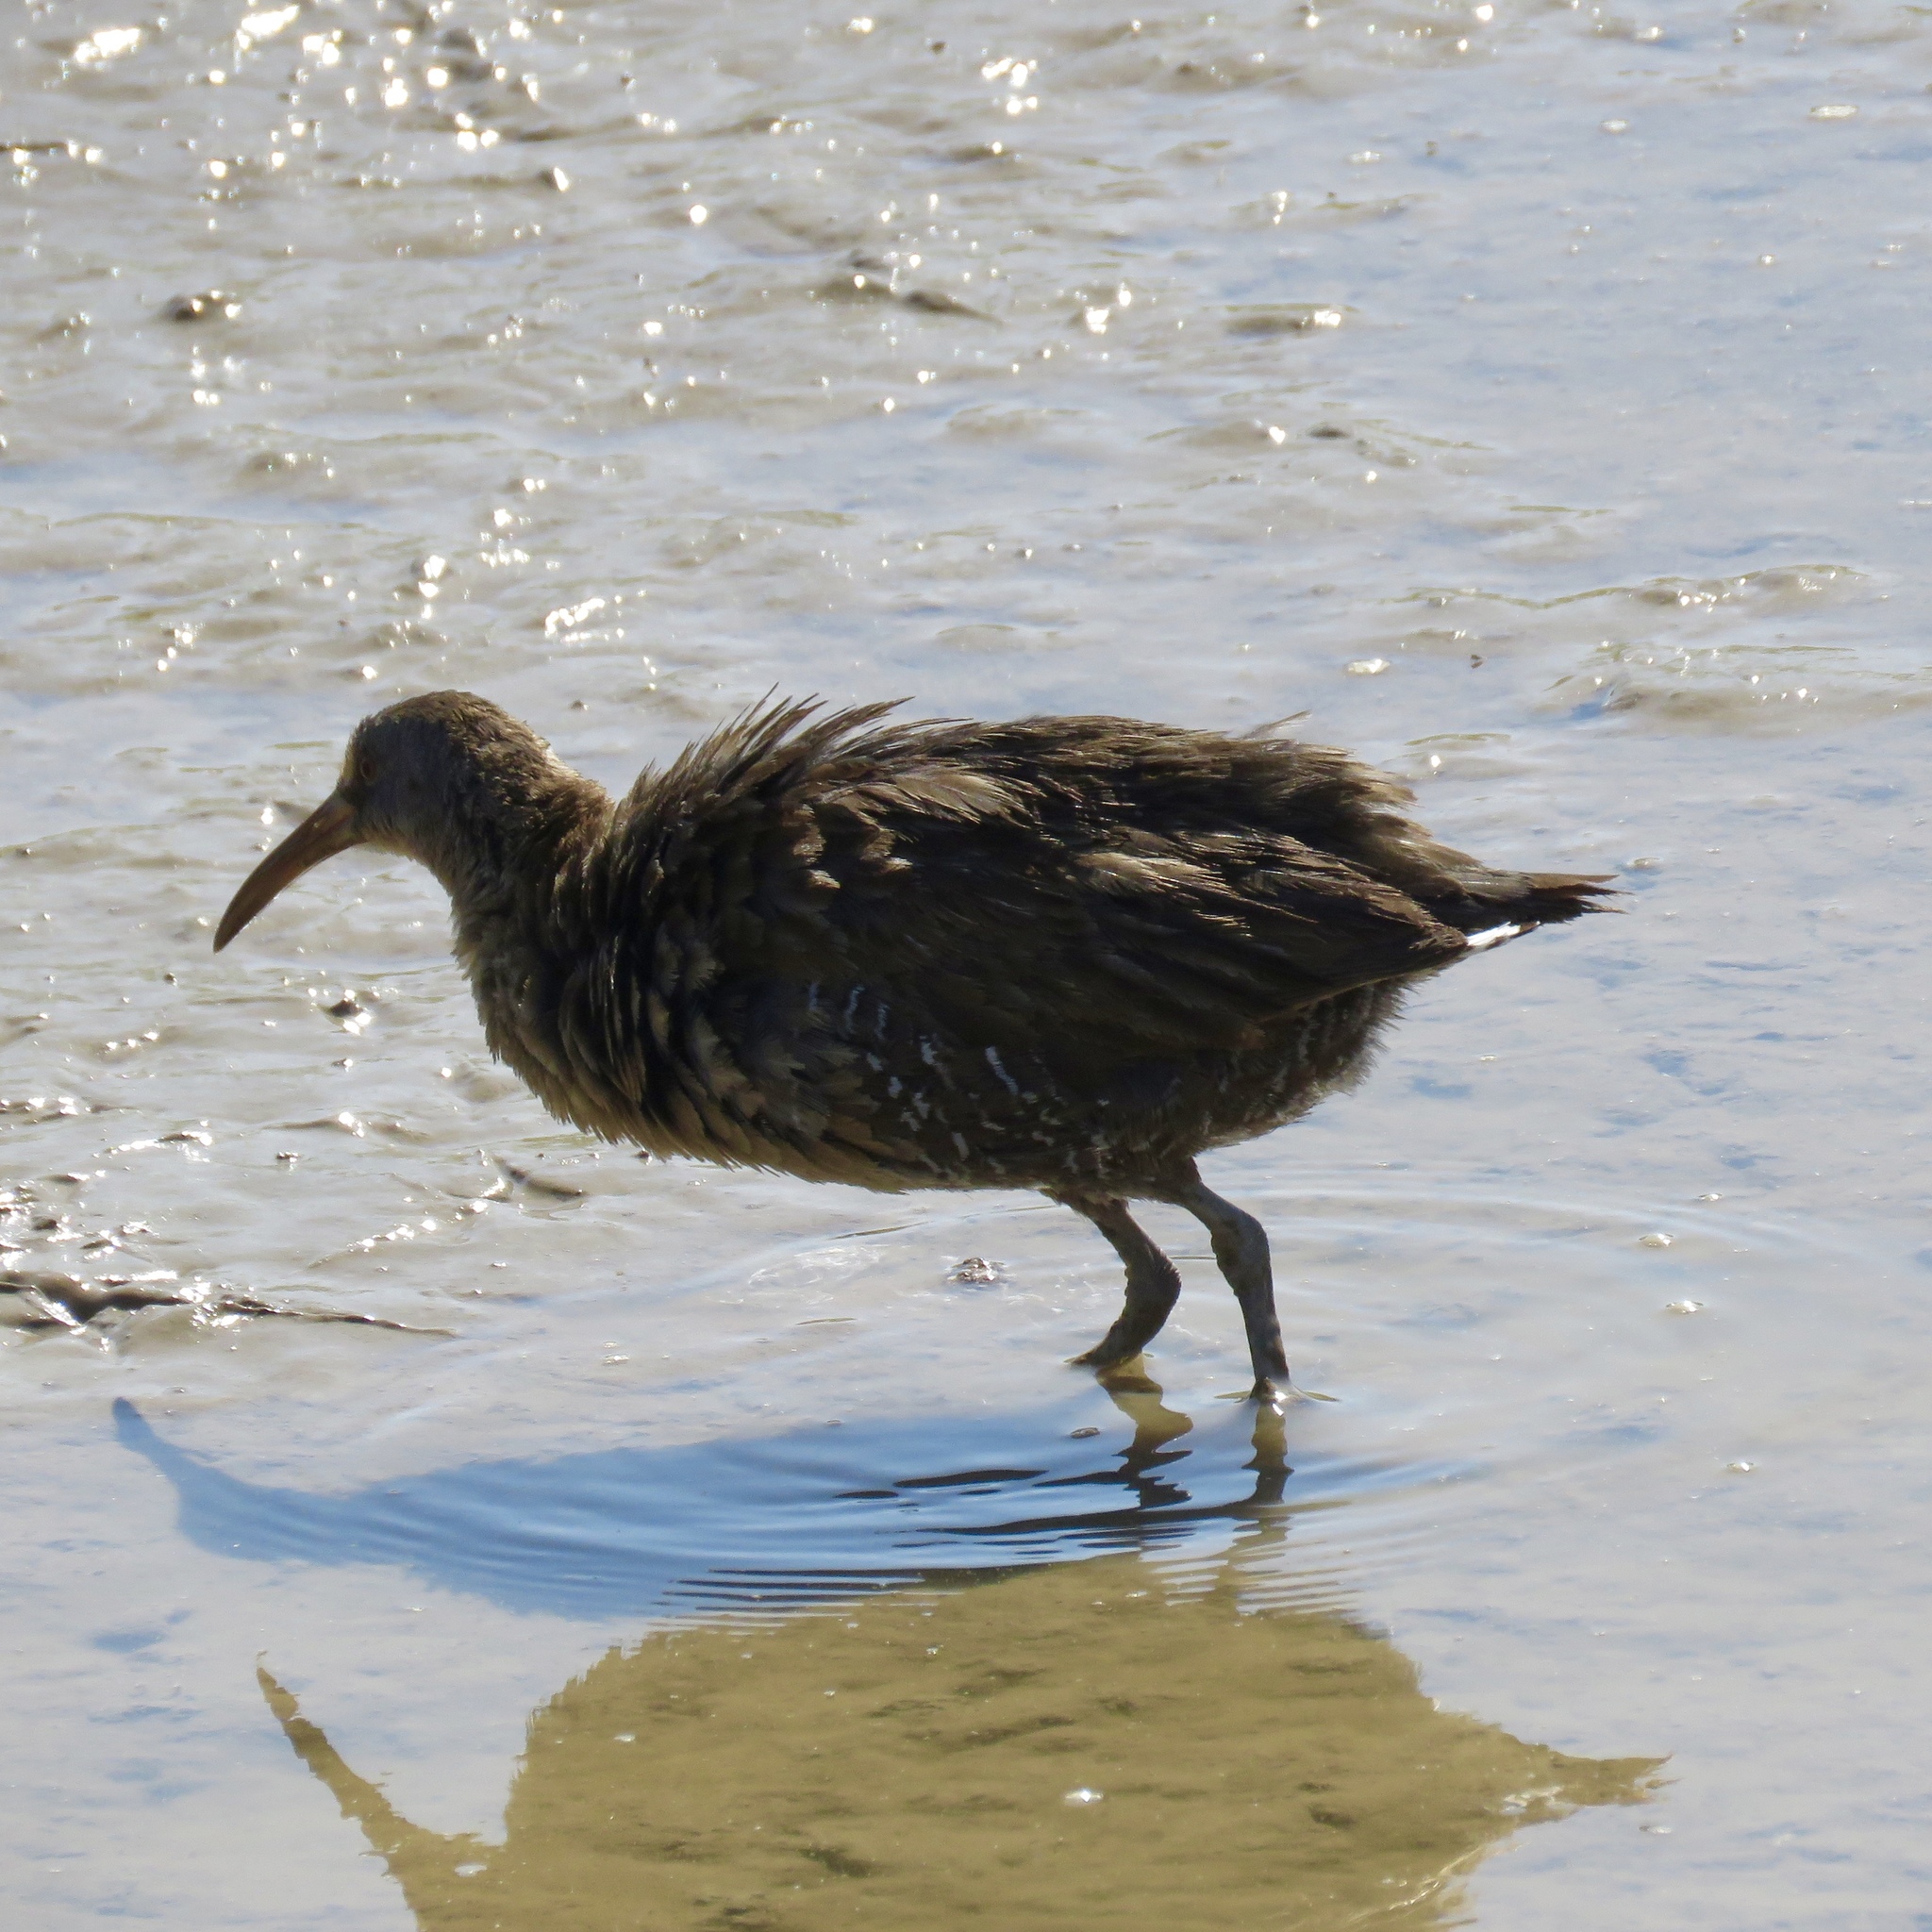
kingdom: Animalia
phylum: Chordata
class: Aves
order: Gruiformes
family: Rallidae
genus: Rallus
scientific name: Rallus crepitans
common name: Clapper rail
